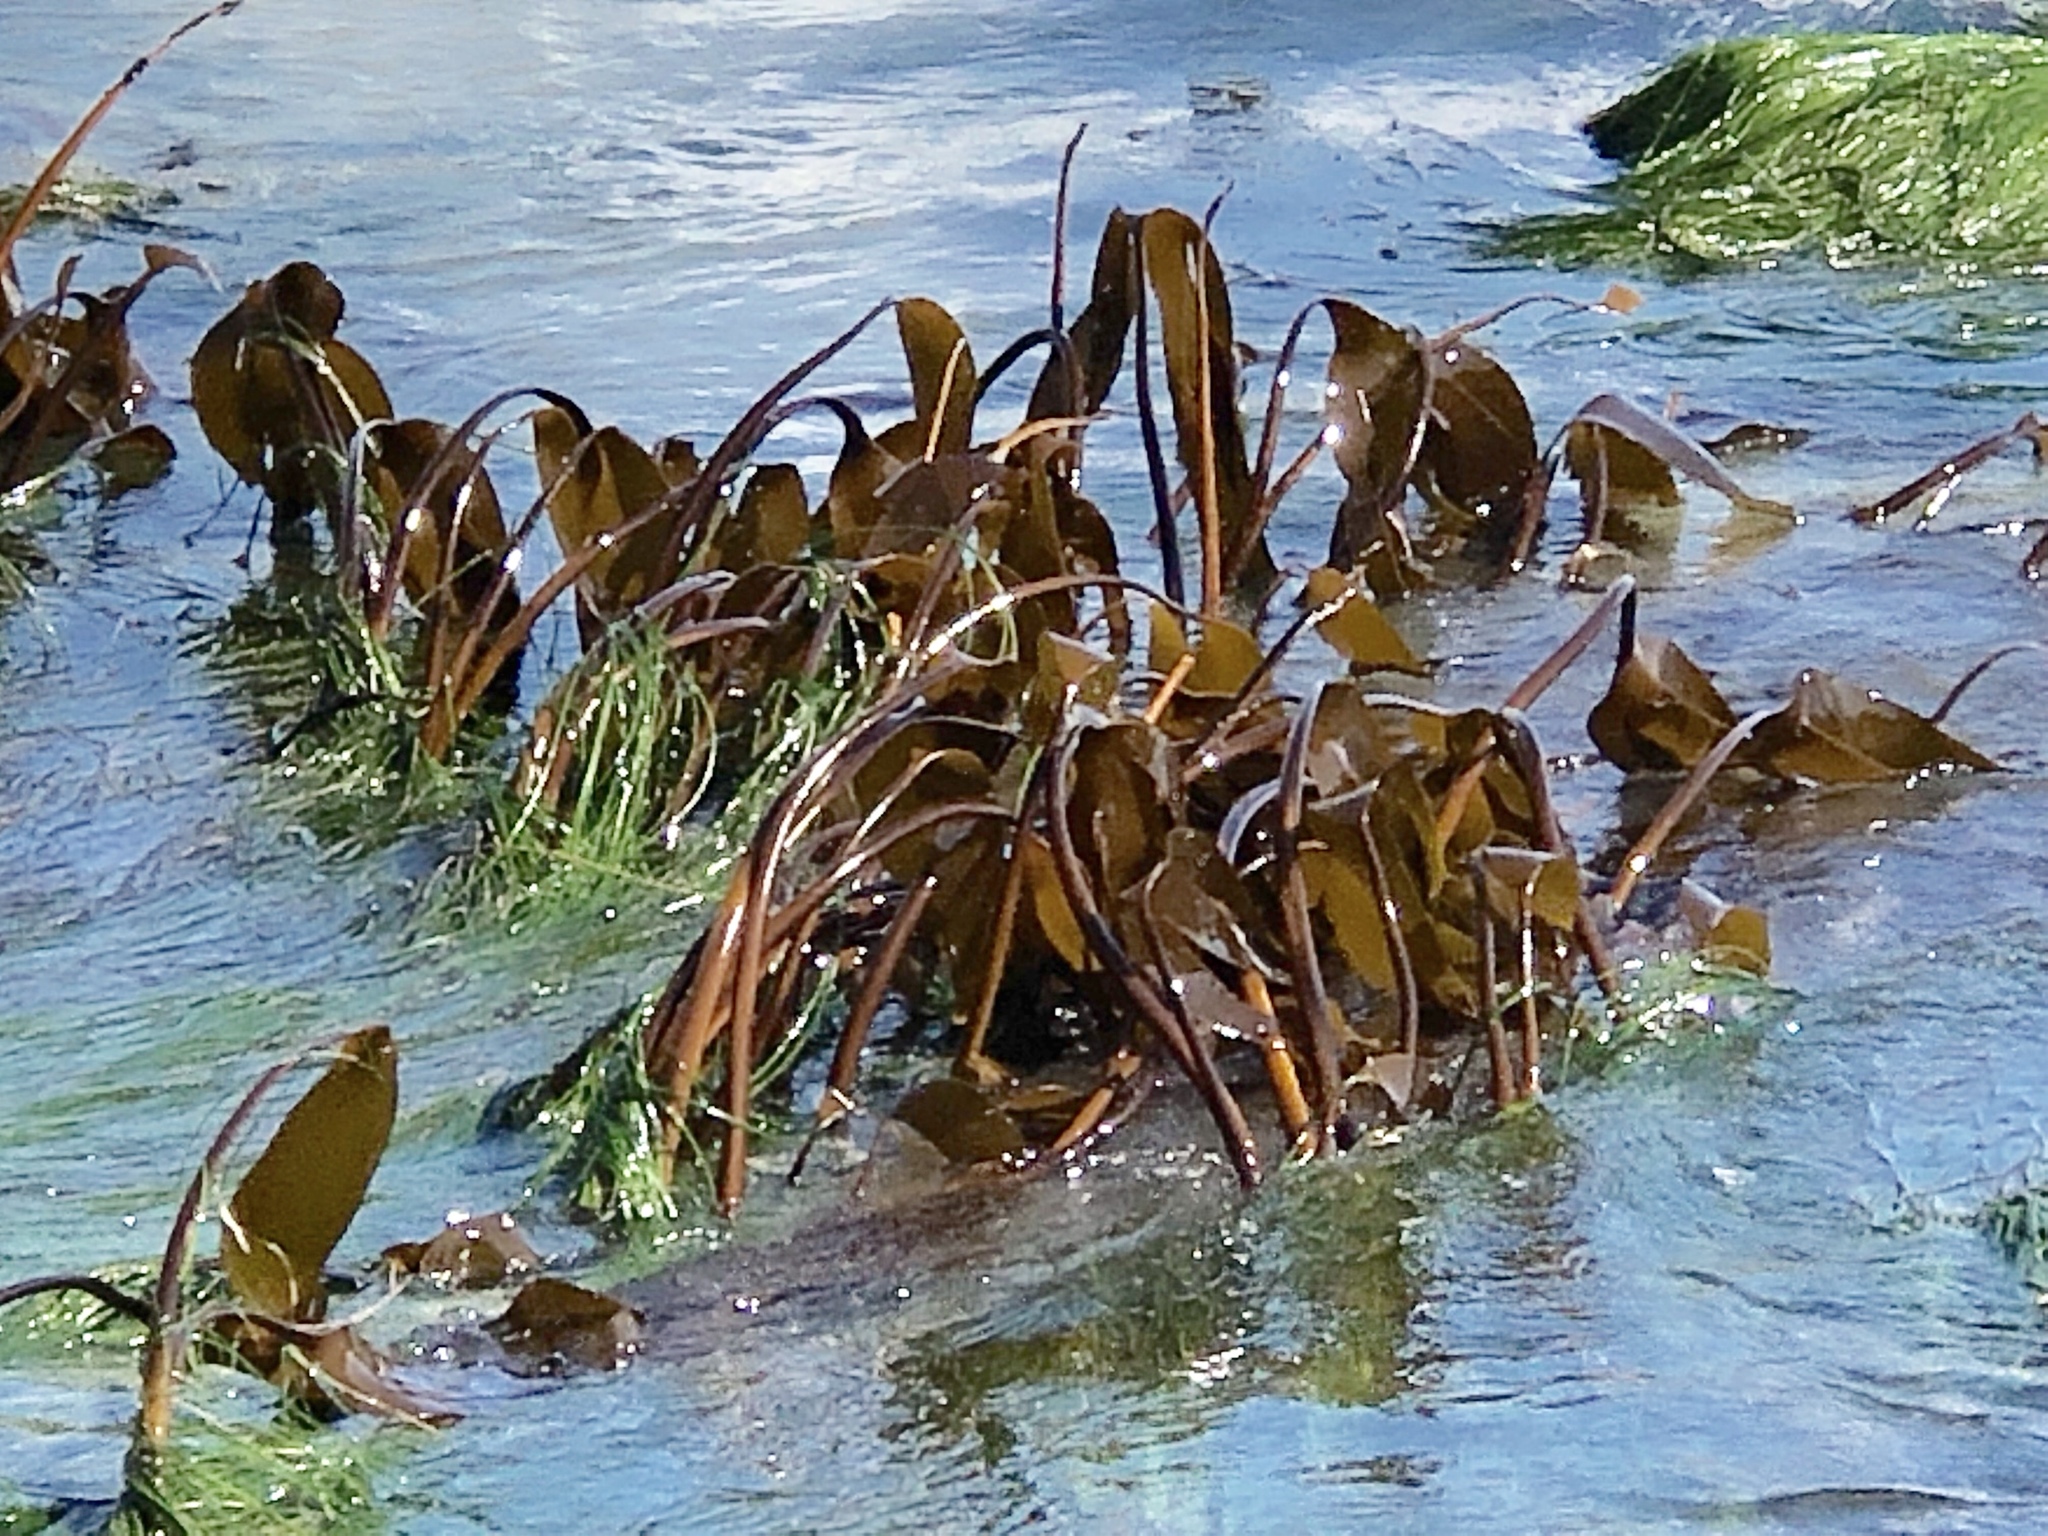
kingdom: Chromista
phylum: Ochrophyta
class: Phaeophyceae
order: Laminariales
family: Laminariaceae
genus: Laminaria
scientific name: Laminaria setchellii
